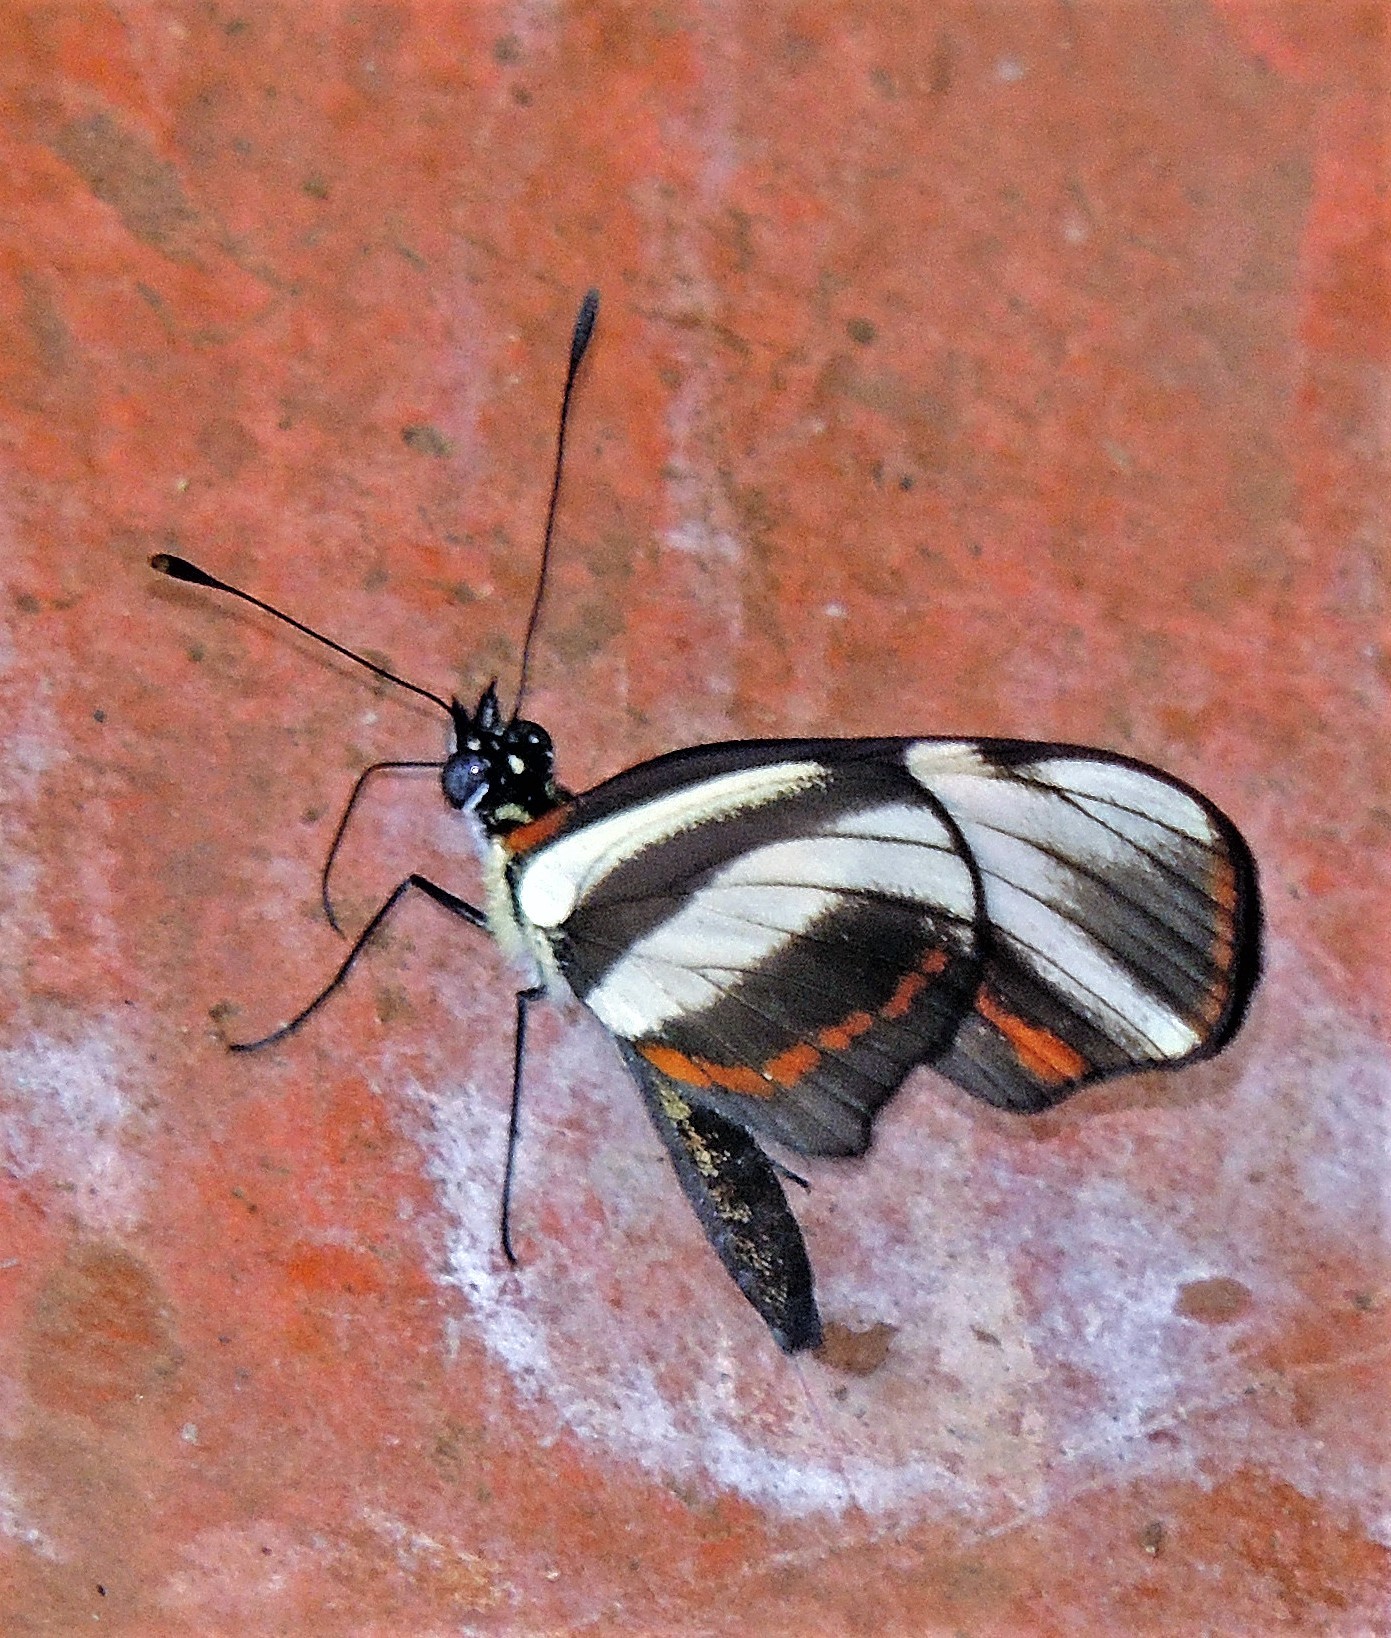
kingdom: Animalia
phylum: Arthropoda
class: Insecta
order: Lepidoptera
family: Nymphalidae
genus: Eresia
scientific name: Eresia lansdorfi
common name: Lansdorf's crescent
